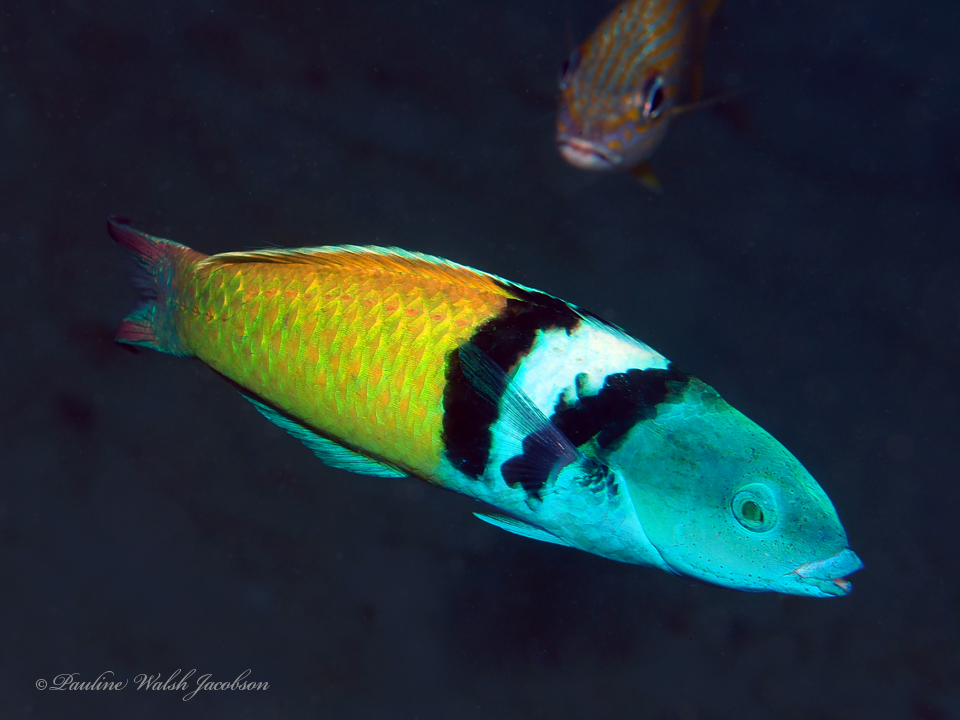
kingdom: Animalia
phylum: Chordata
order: Perciformes
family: Labridae
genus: Thalassoma
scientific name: Thalassoma bifasciatum
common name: Bluehead wrasse
